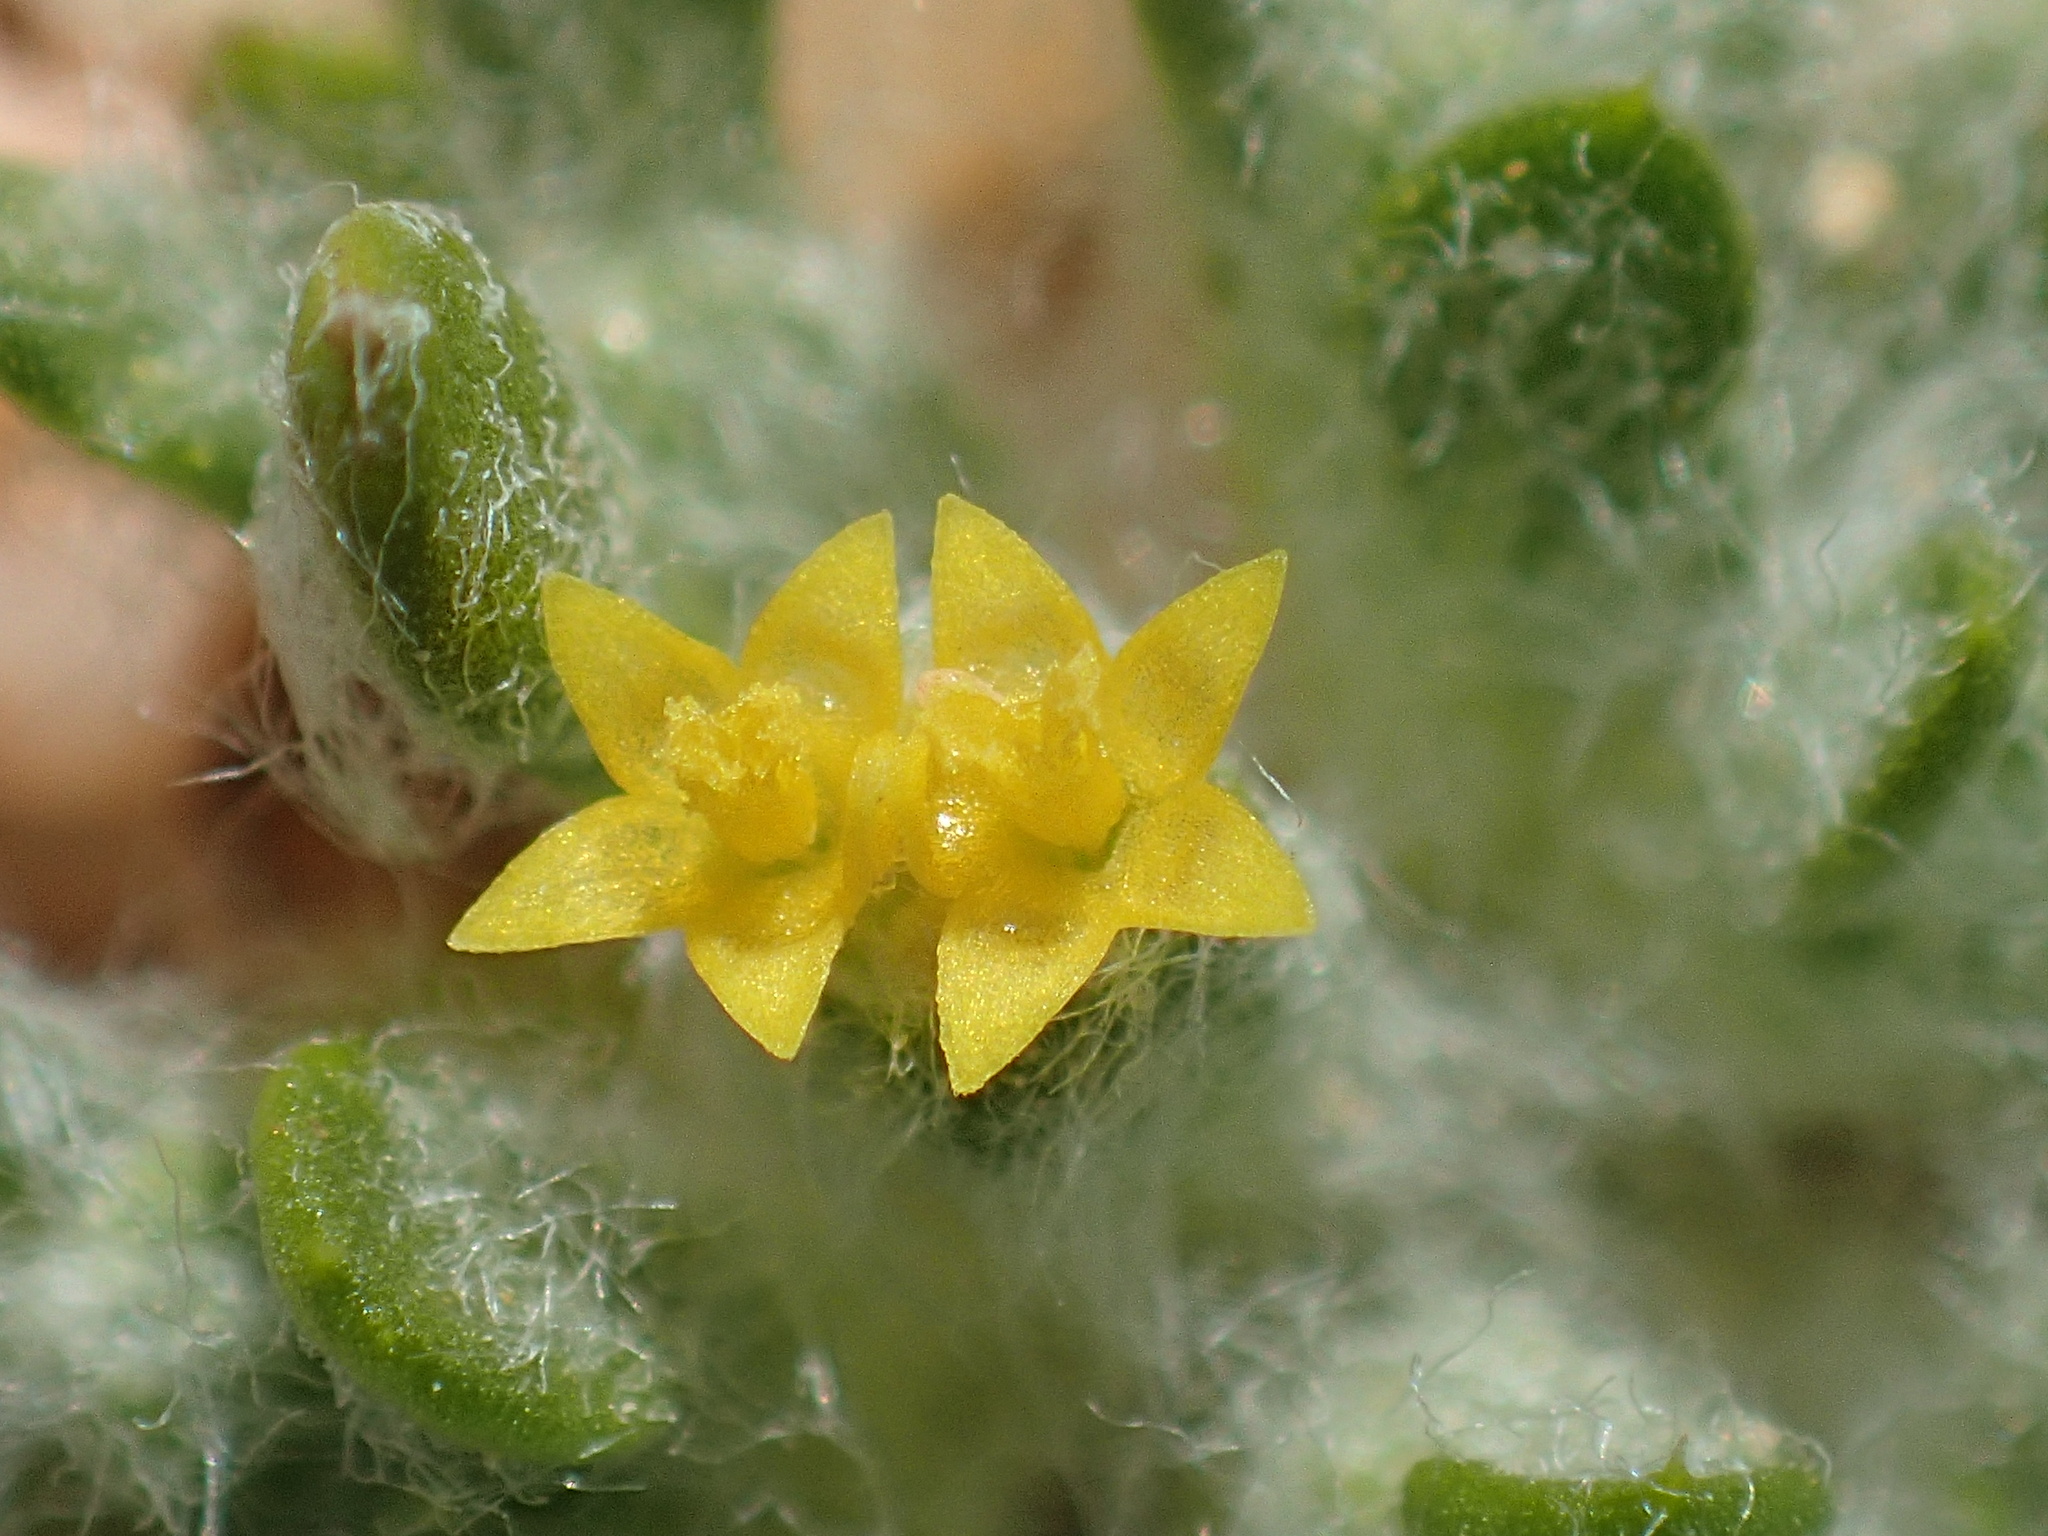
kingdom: Plantae
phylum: Tracheophyta
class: Magnoliopsida
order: Asterales
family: Asteraceae
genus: Eriophyllum
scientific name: Eriophyllum mohavense
